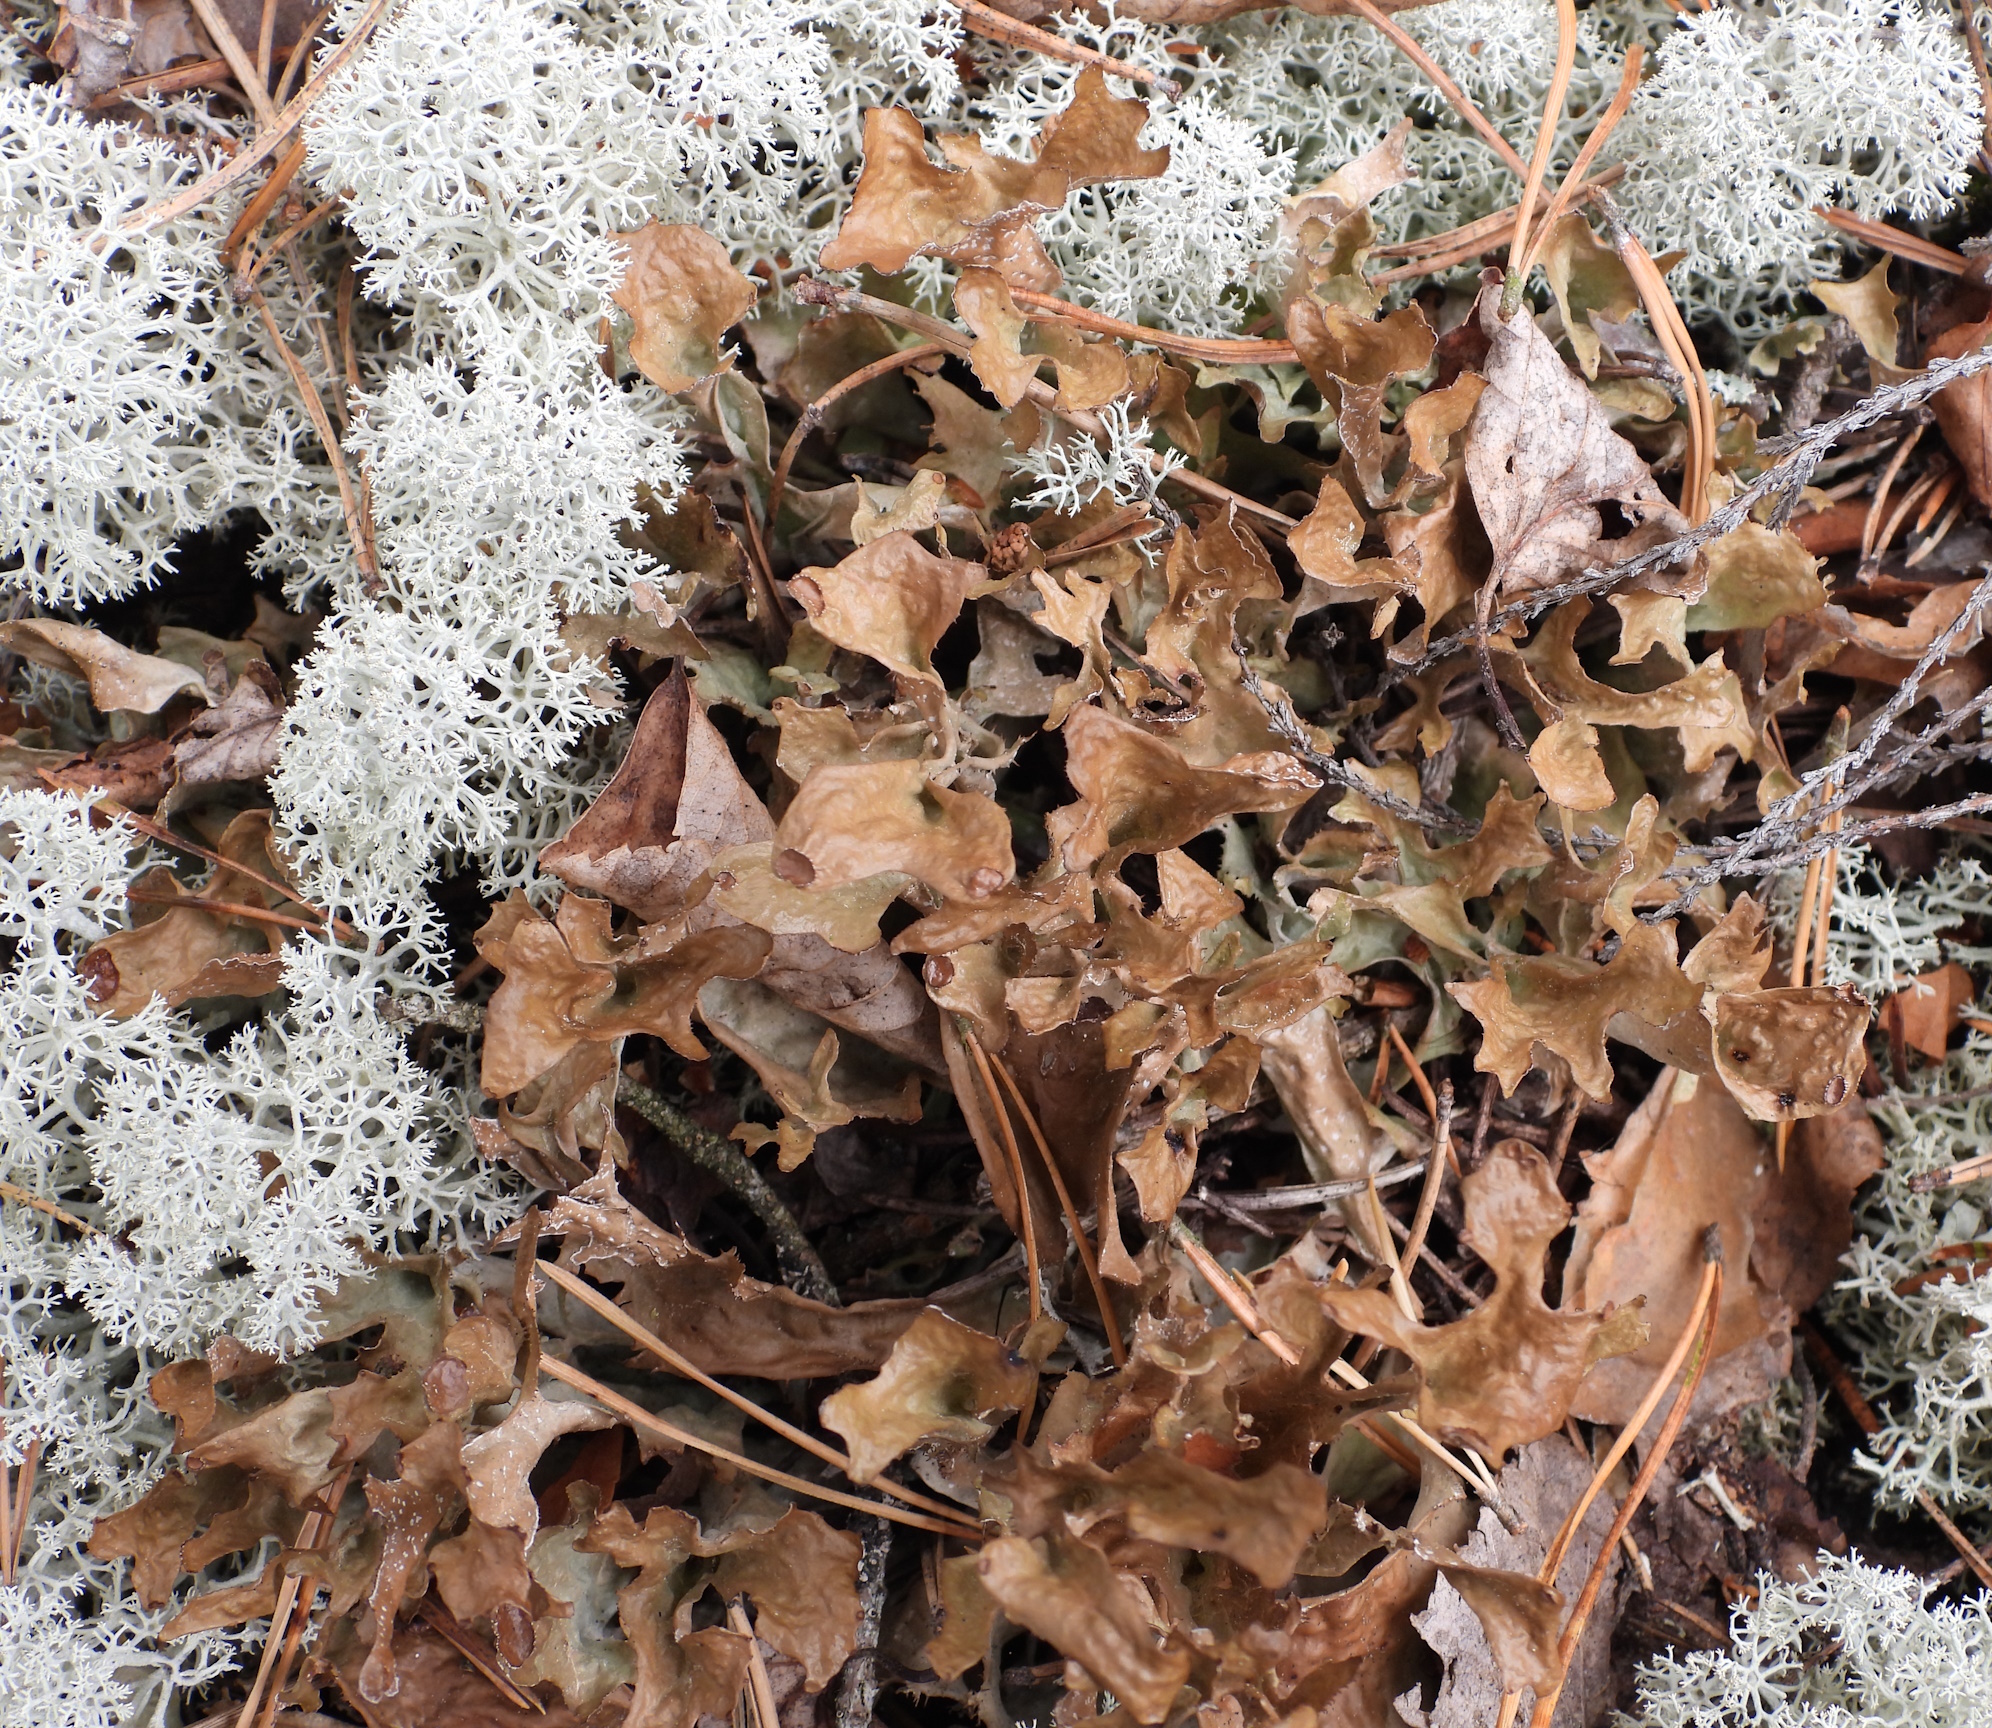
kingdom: Fungi
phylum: Ascomycota
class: Lecanoromycetes
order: Lecanorales
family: Parmeliaceae
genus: Cetraria
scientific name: Cetraria islandica
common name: Iceland lichen
